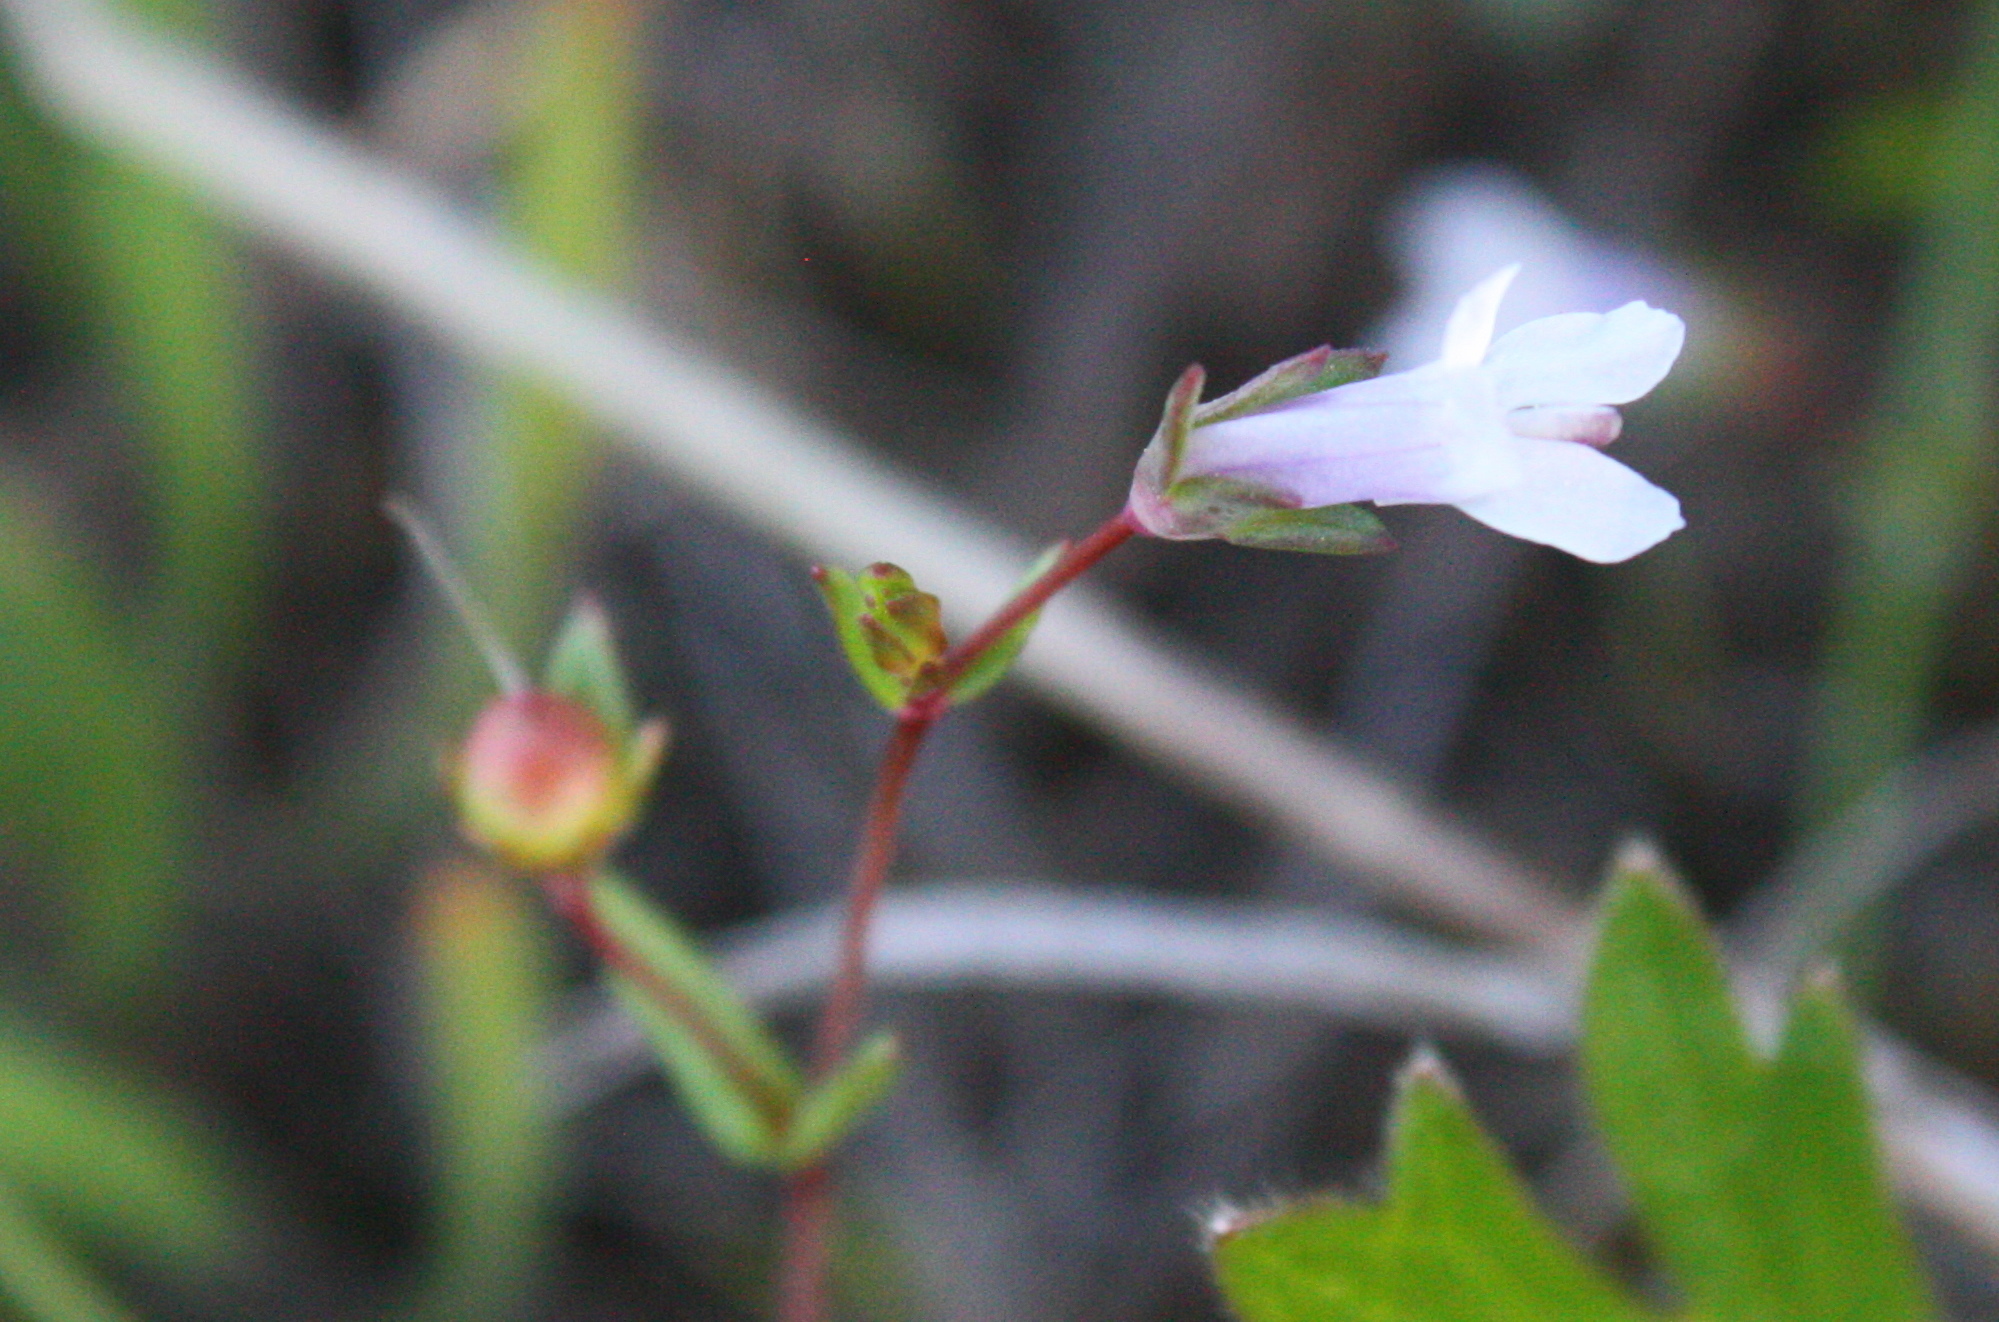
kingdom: Plantae
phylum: Tracheophyta
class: Magnoliopsida
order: Lamiales
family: Plantaginaceae
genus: Collinsia
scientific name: Collinsia sparsiflora
